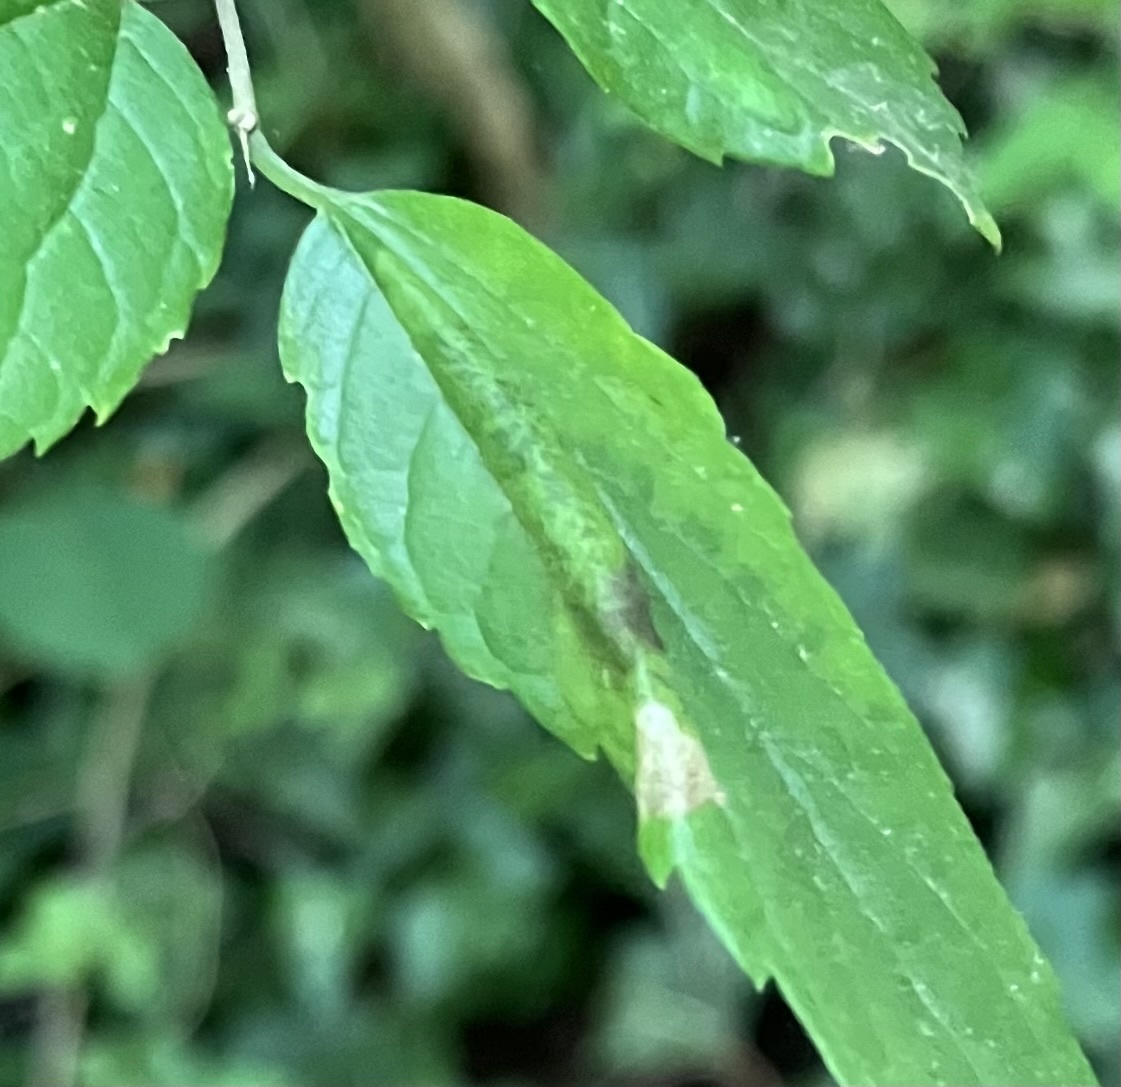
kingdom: Animalia
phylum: Arthropoda
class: Insecta
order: Lepidoptera
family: Gracillariidae
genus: Phyllonorycter
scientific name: Phyllonorycter celtifoliella
